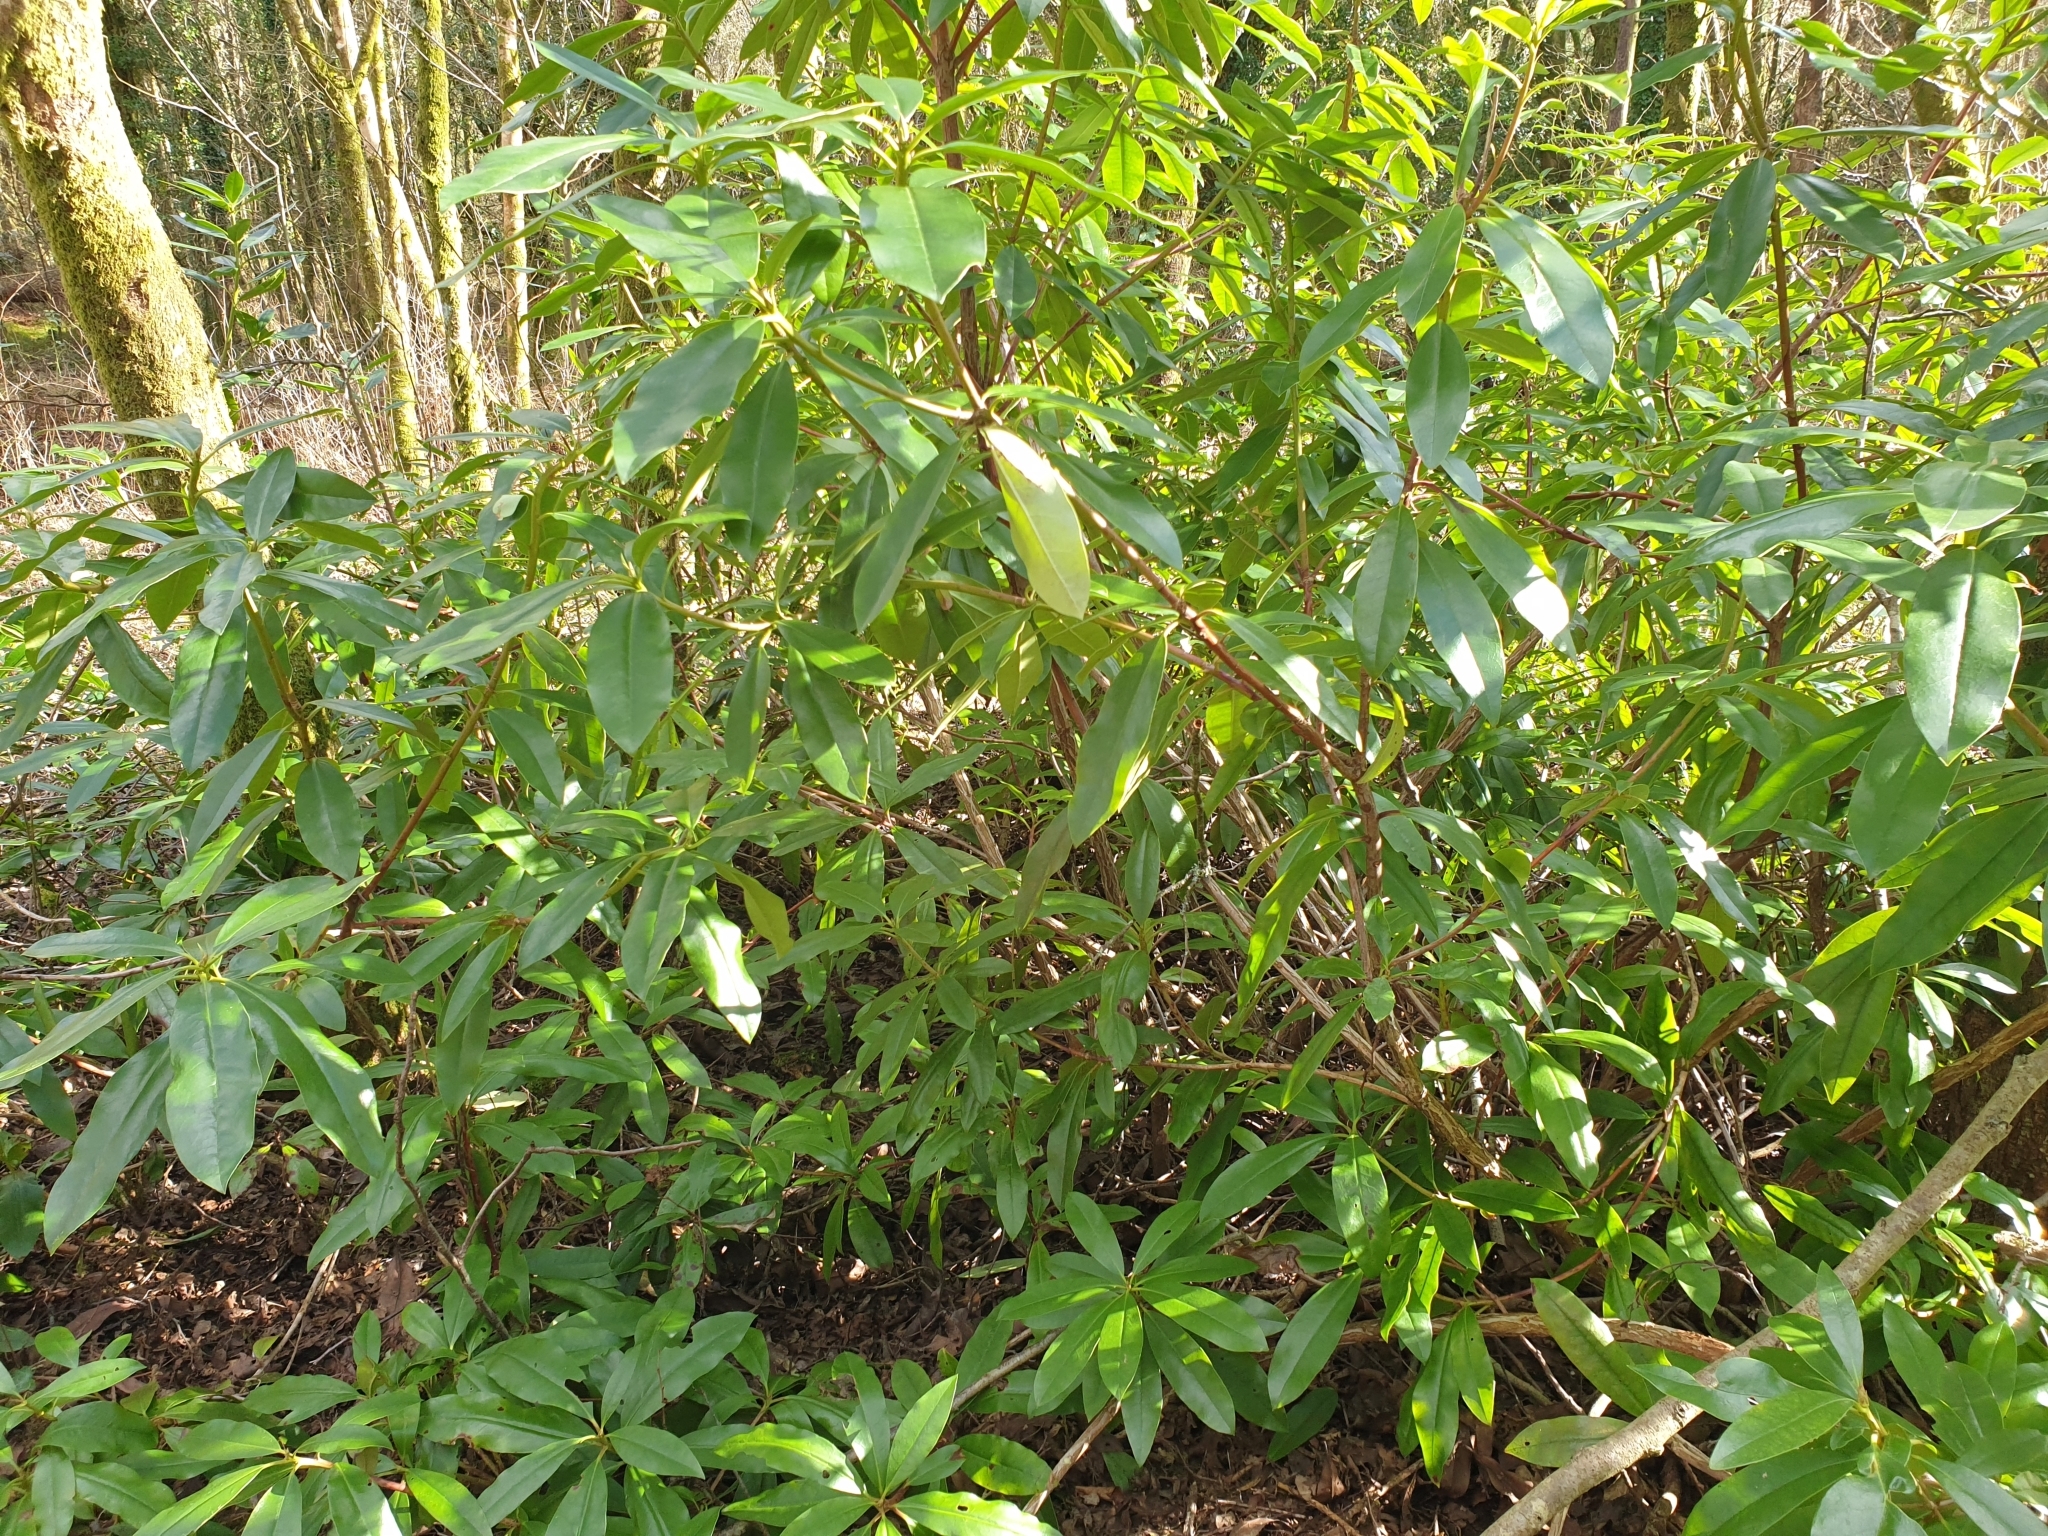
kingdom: Plantae
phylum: Tracheophyta
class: Magnoliopsida
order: Ericales
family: Ericaceae
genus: Rhododendron
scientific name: Rhododendron ponticum
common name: Rhododendron
